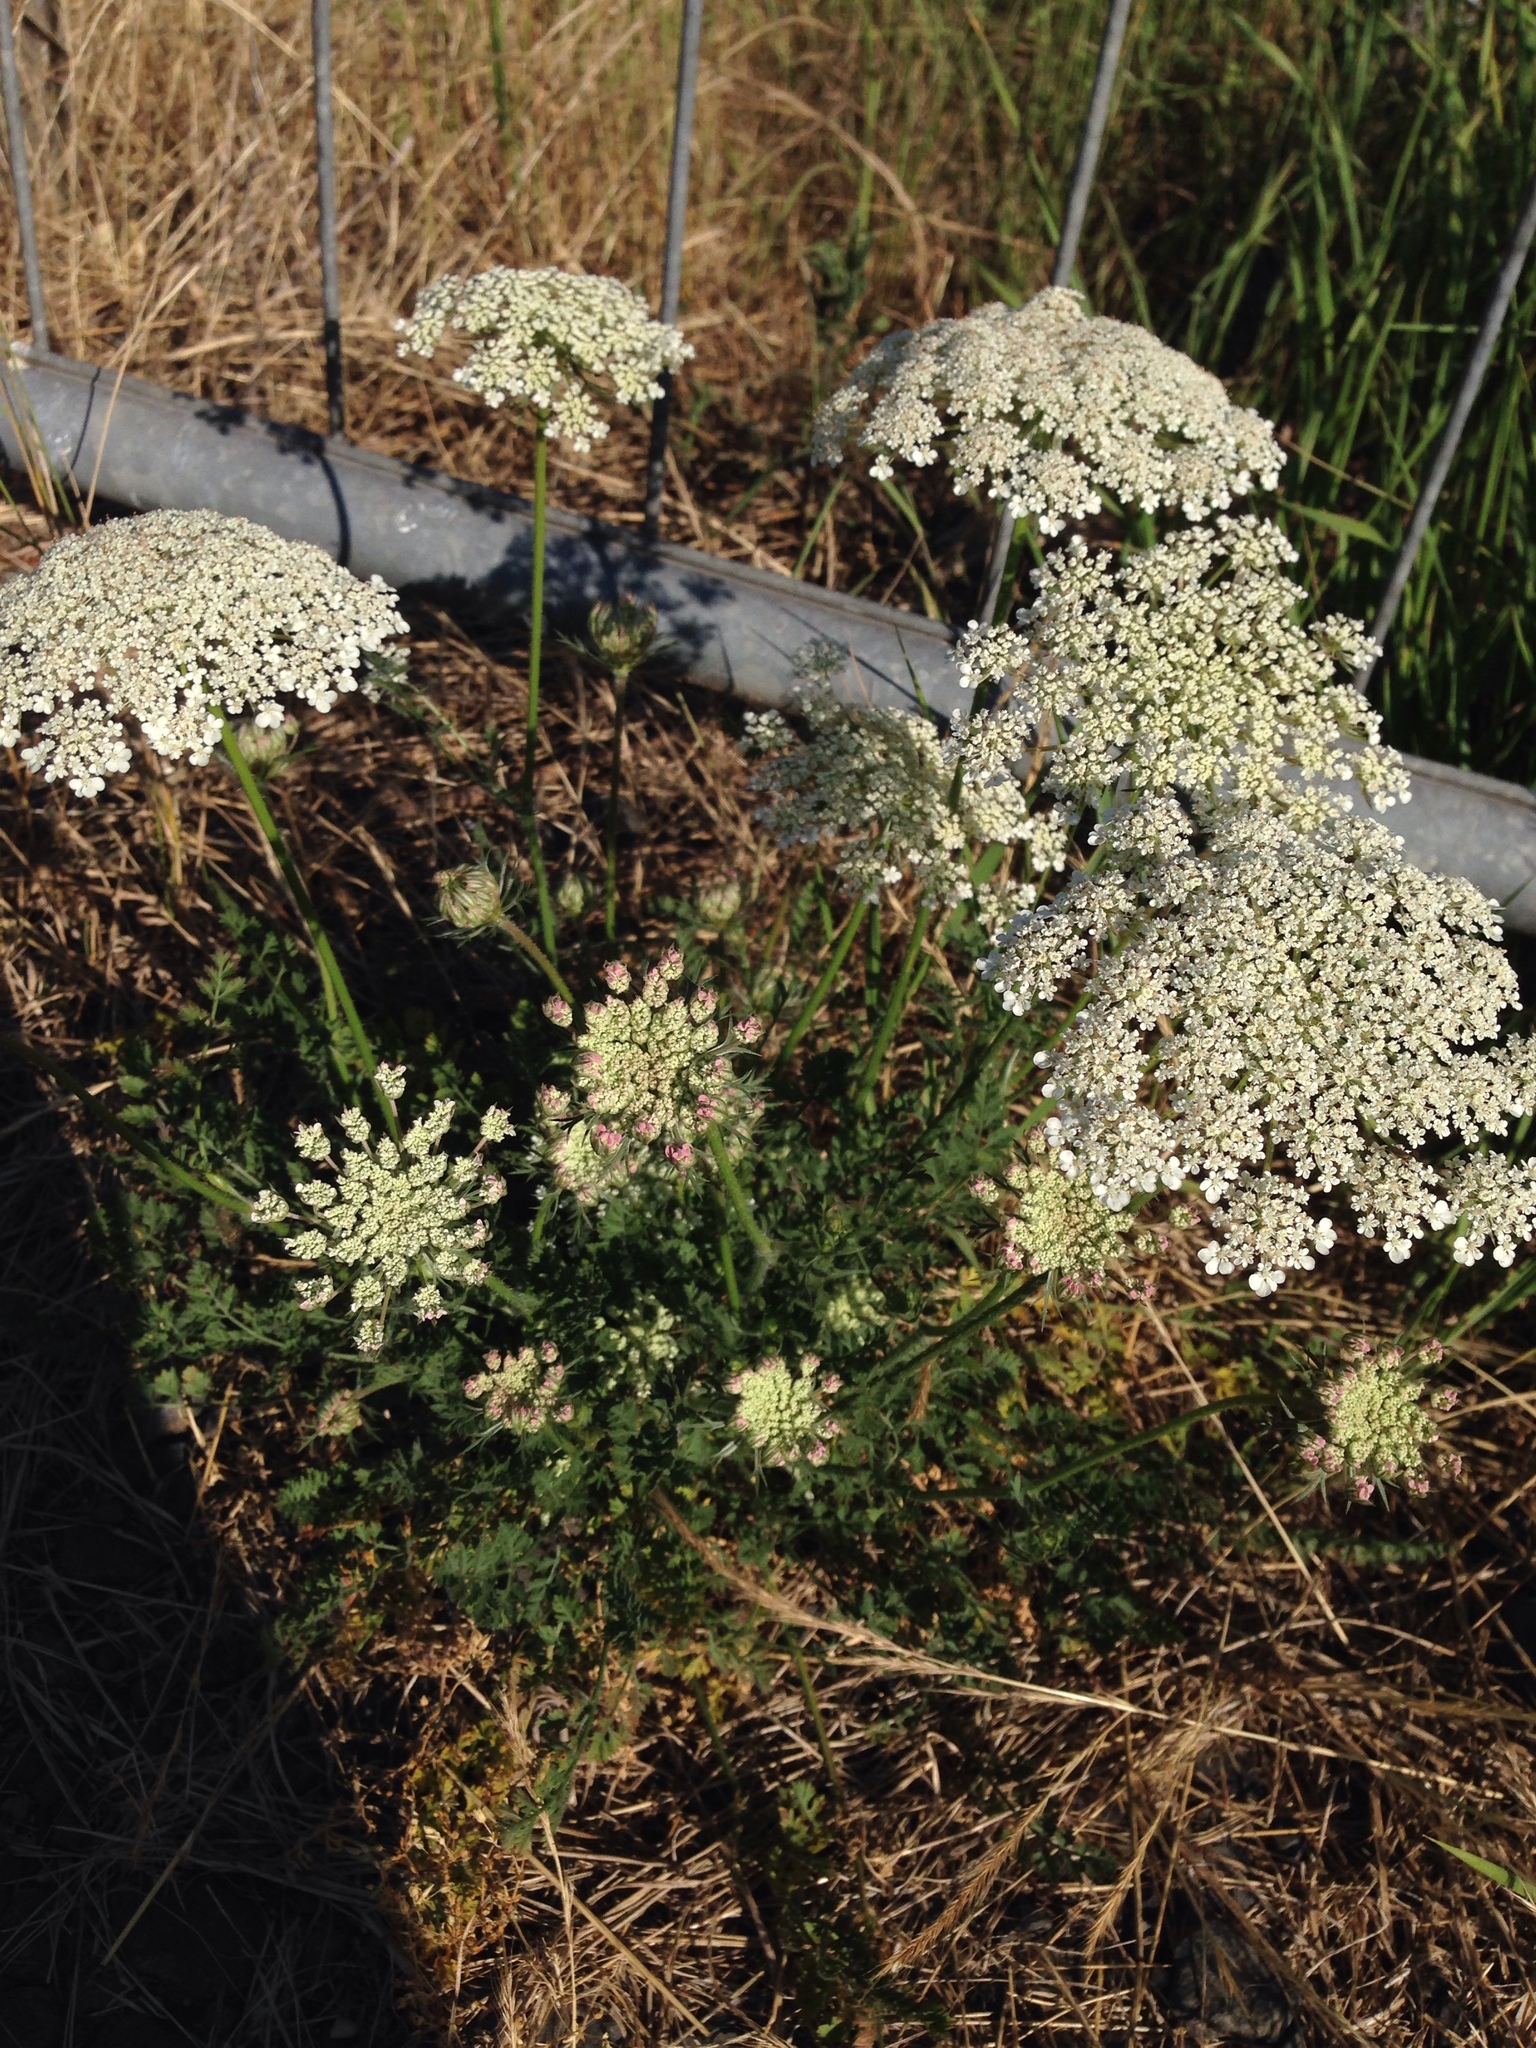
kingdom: Plantae
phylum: Tracheophyta
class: Magnoliopsida
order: Apiales
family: Apiaceae
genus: Daucus
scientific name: Daucus carota
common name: Wild carrot
